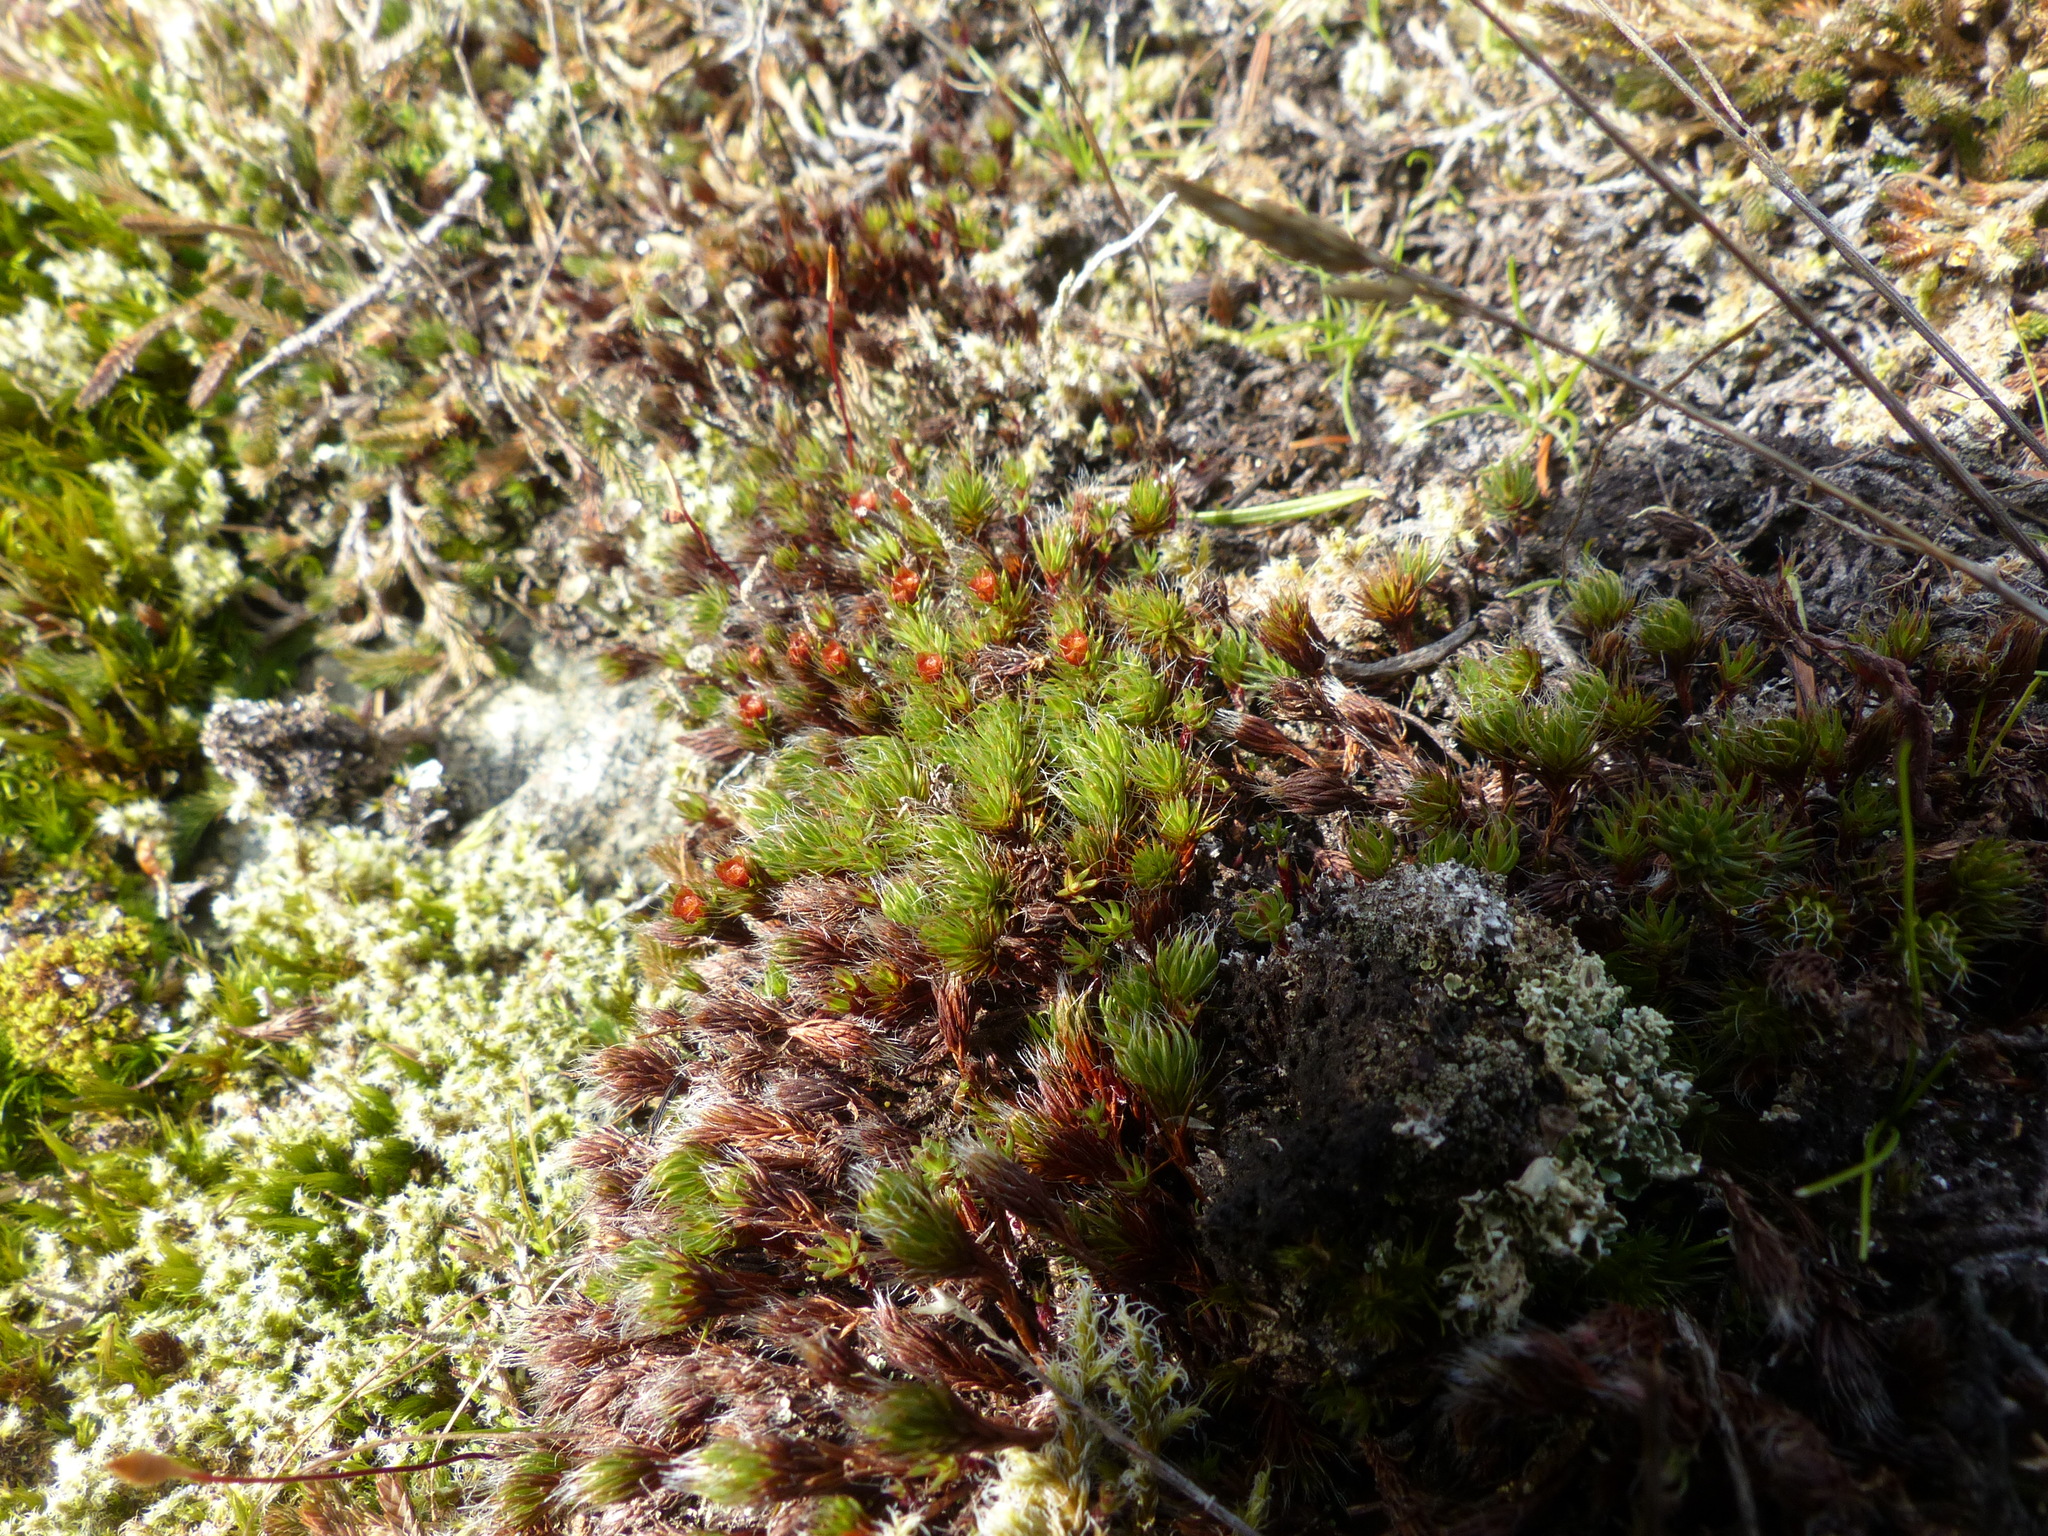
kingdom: Plantae
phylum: Bryophyta
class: Polytrichopsida
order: Polytrichales
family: Polytrichaceae
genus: Polytrichum
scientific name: Polytrichum piliferum
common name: Bristly haircap
